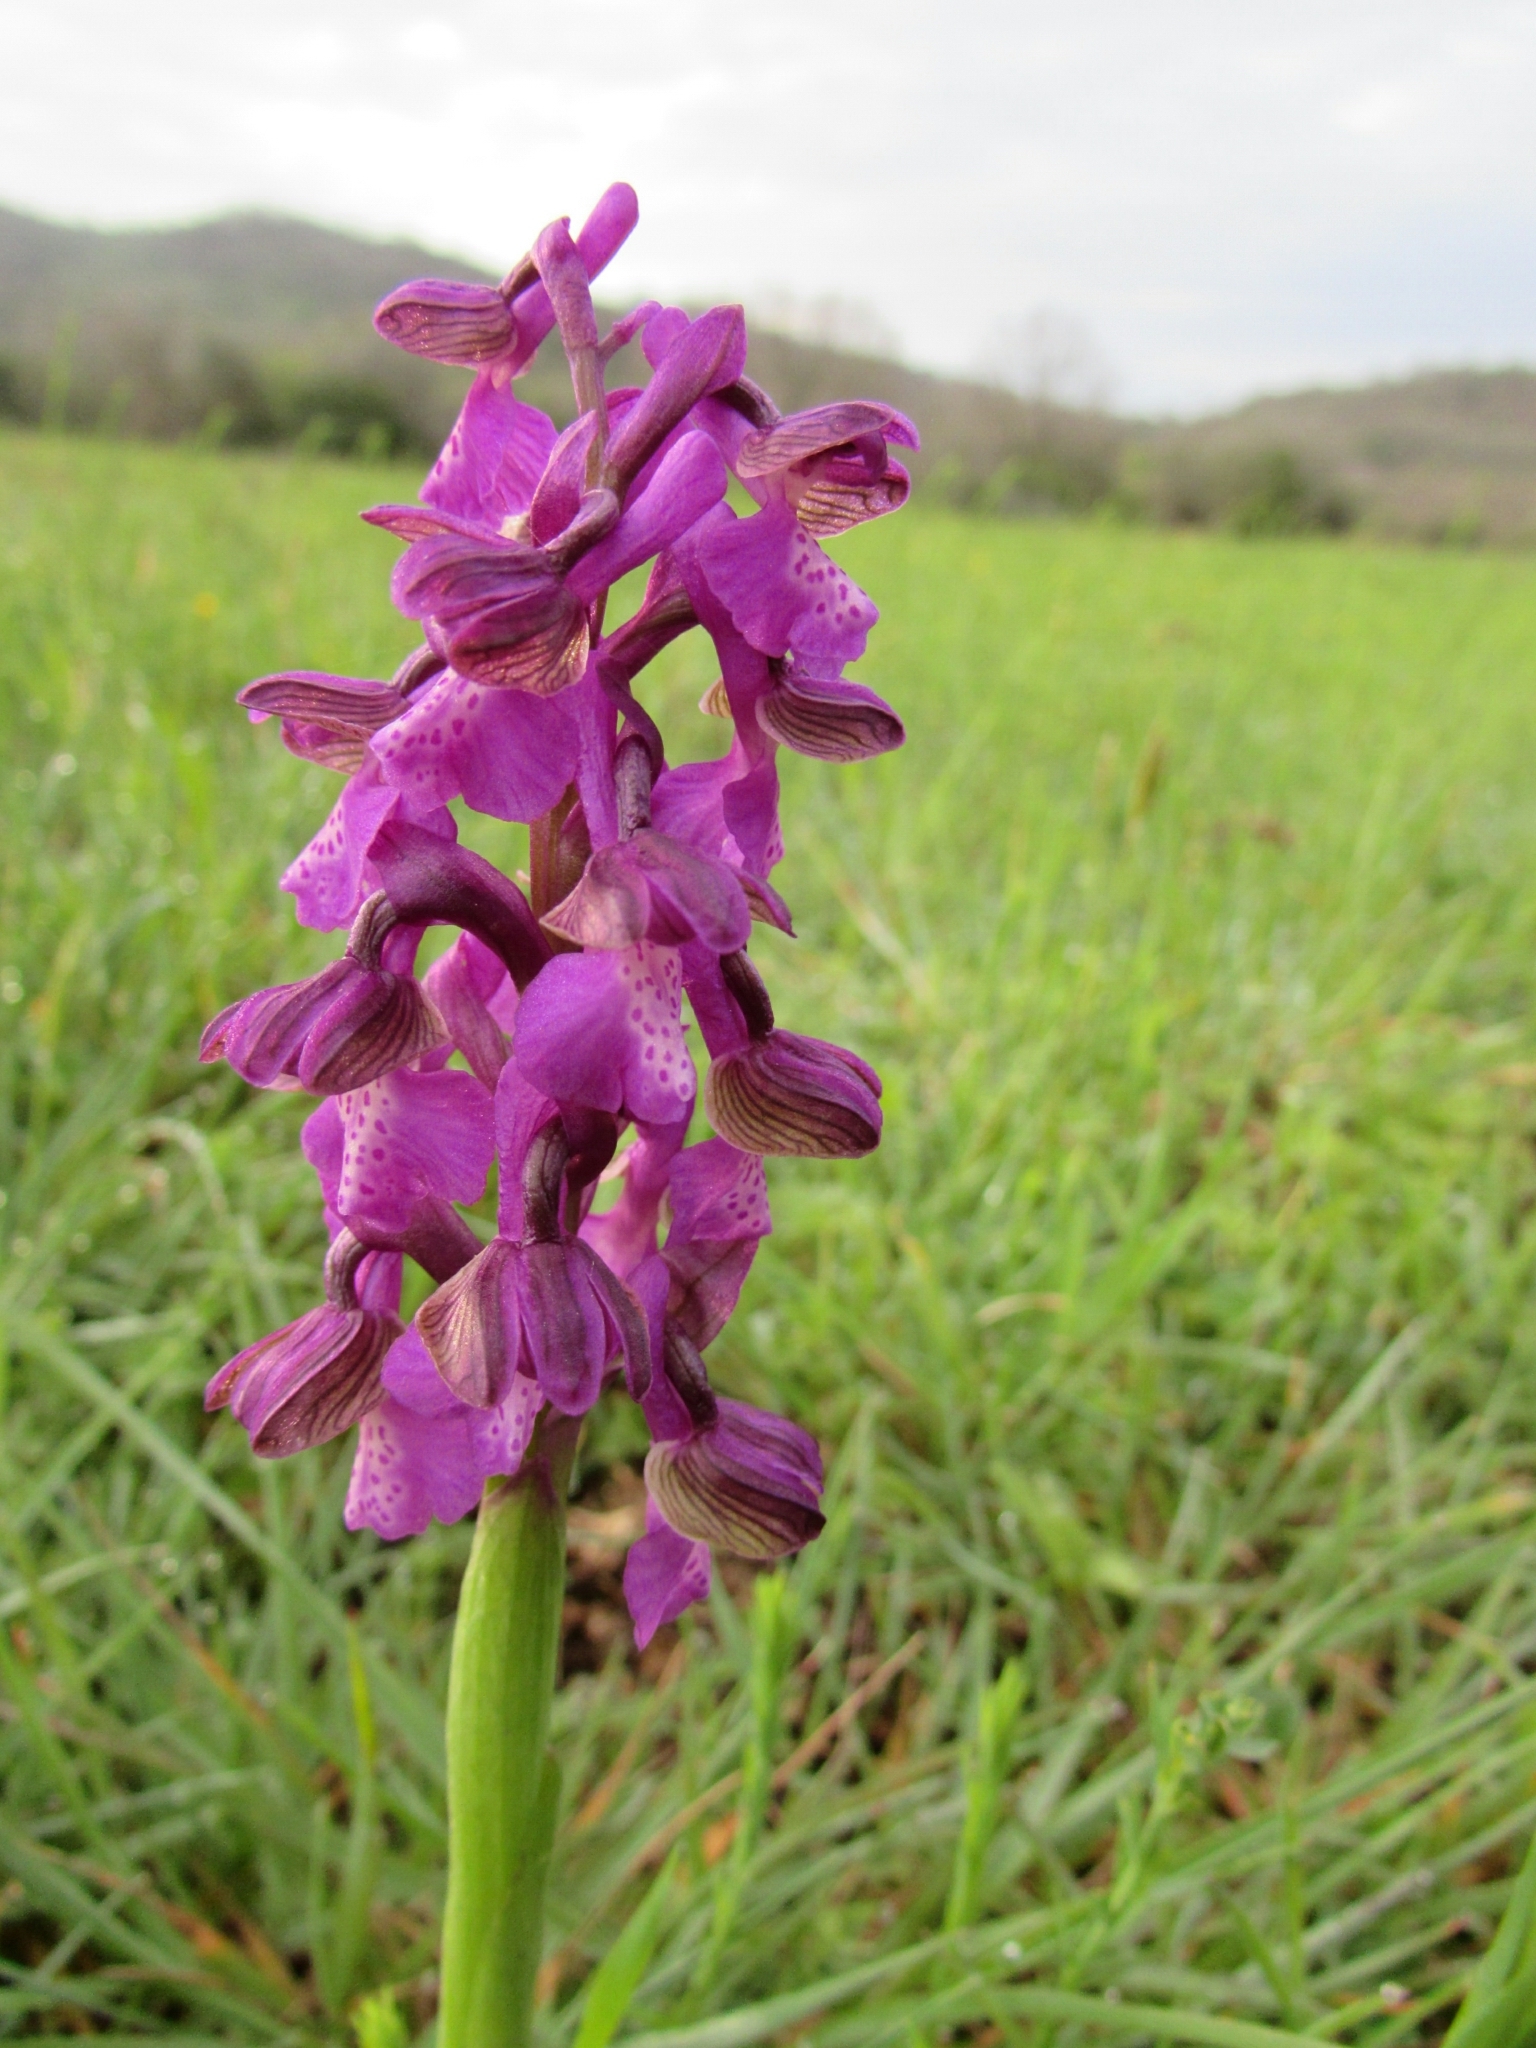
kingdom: Plantae
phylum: Tracheophyta
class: Liliopsida
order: Asparagales
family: Orchidaceae
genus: Anacamptis
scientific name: Anacamptis morio
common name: Green-winged orchid
